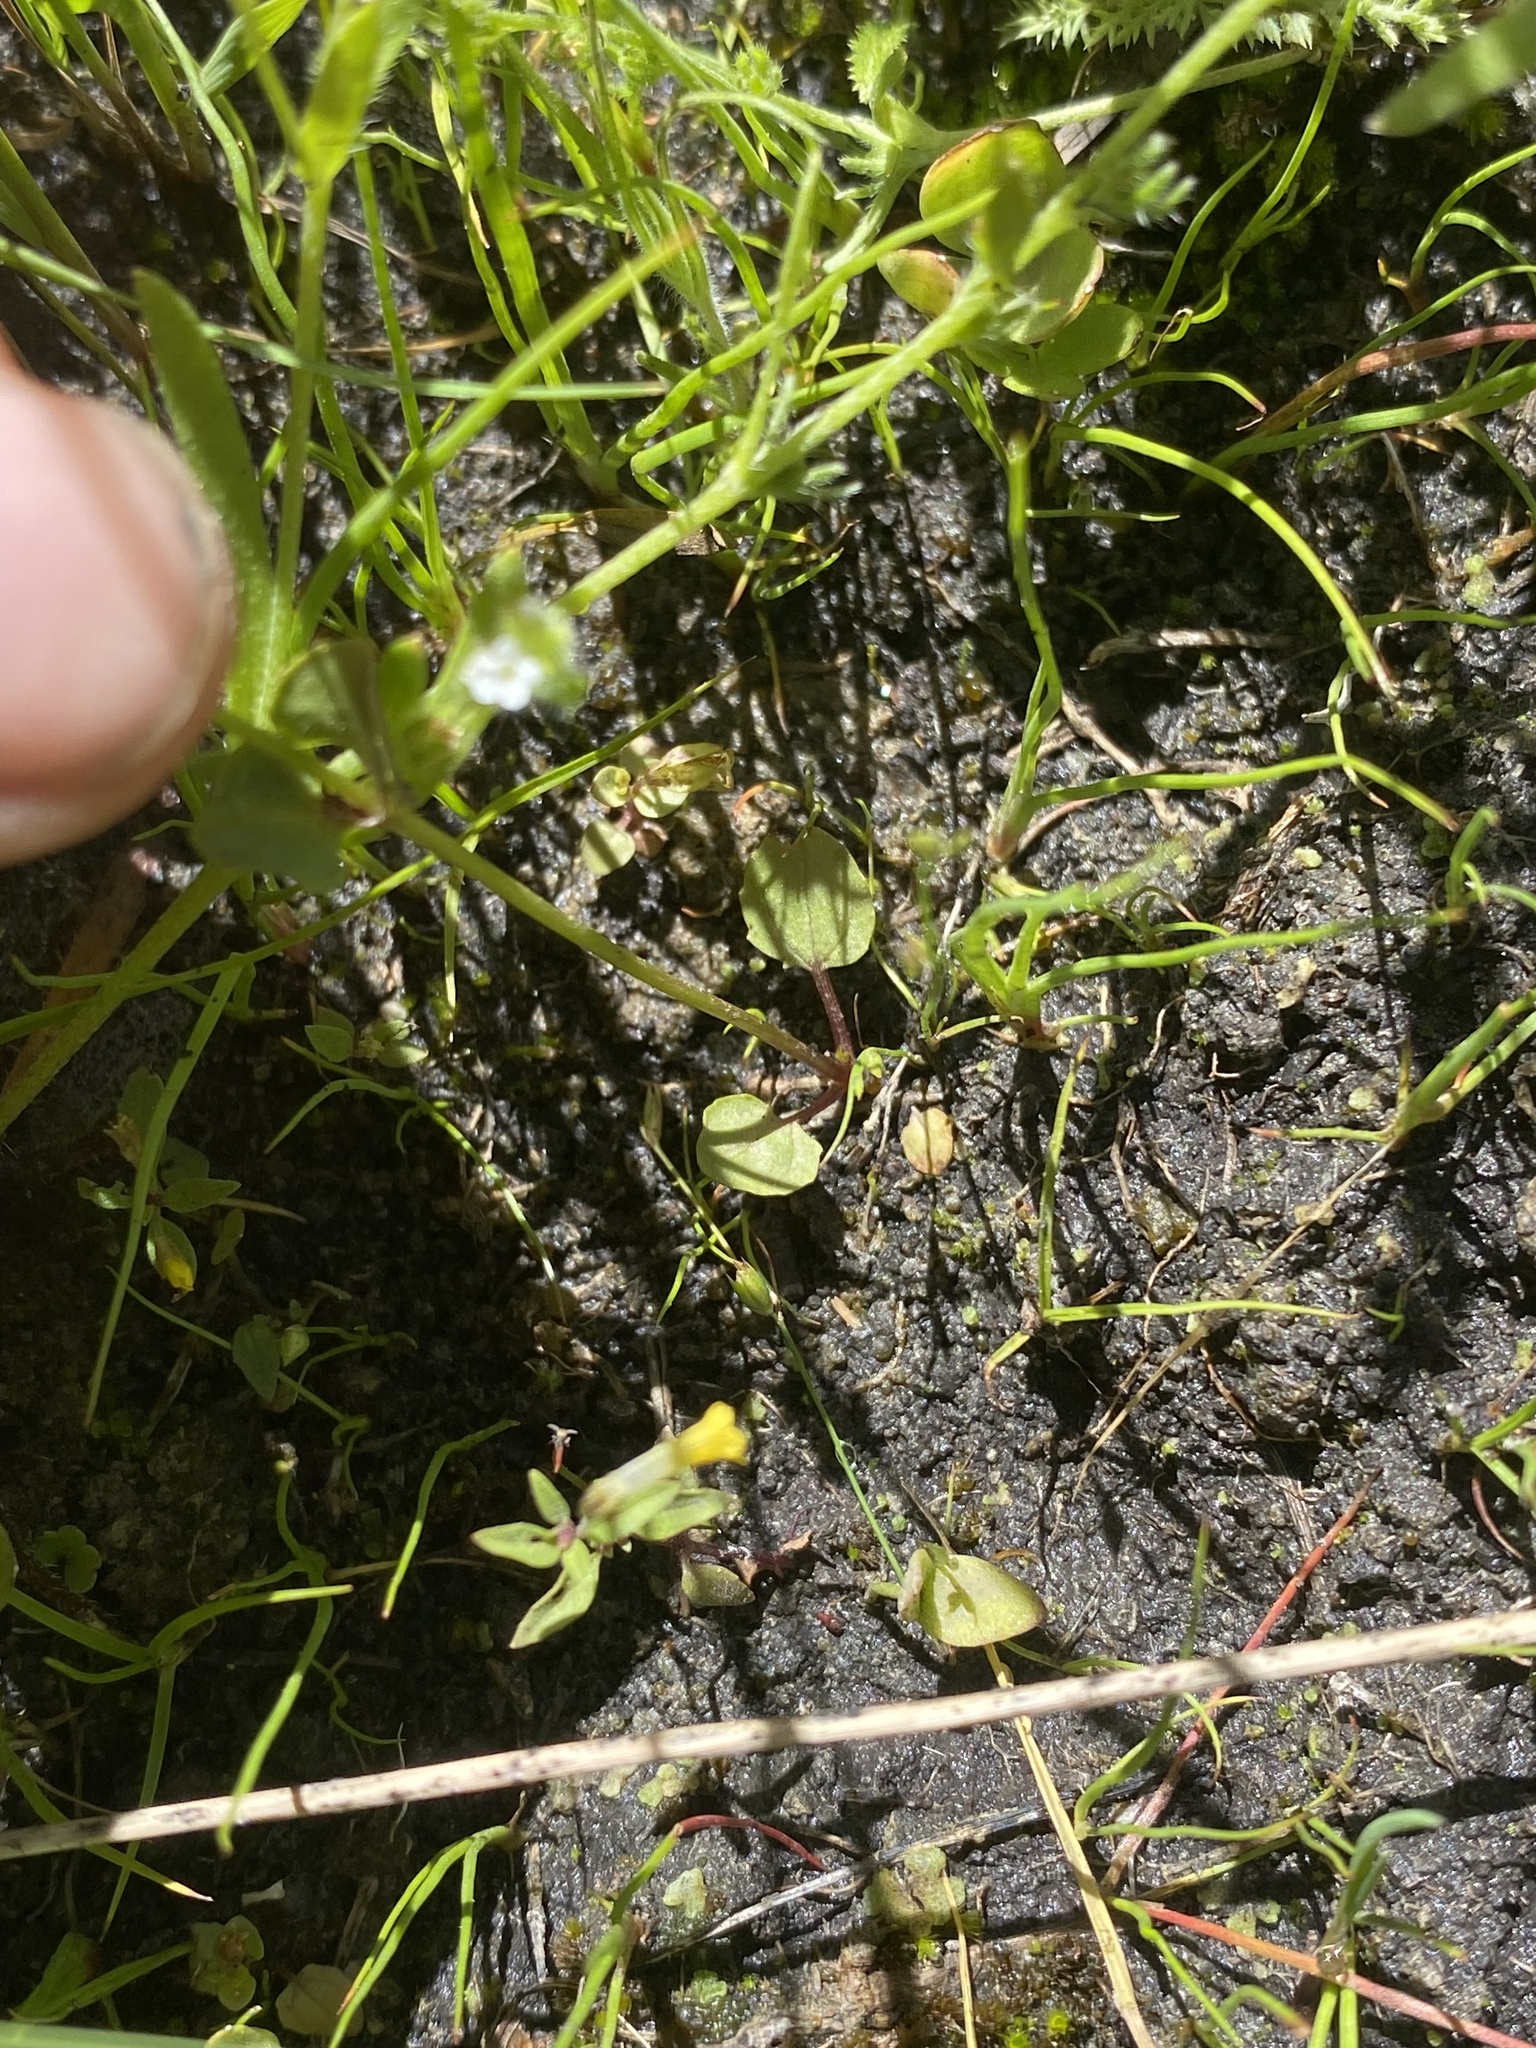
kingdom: Plantae
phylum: Tracheophyta
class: Magnoliopsida
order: Lamiales
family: Phrymaceae
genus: Erythranthe
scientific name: Erythranthe arvensis
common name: Field monkeyflower
